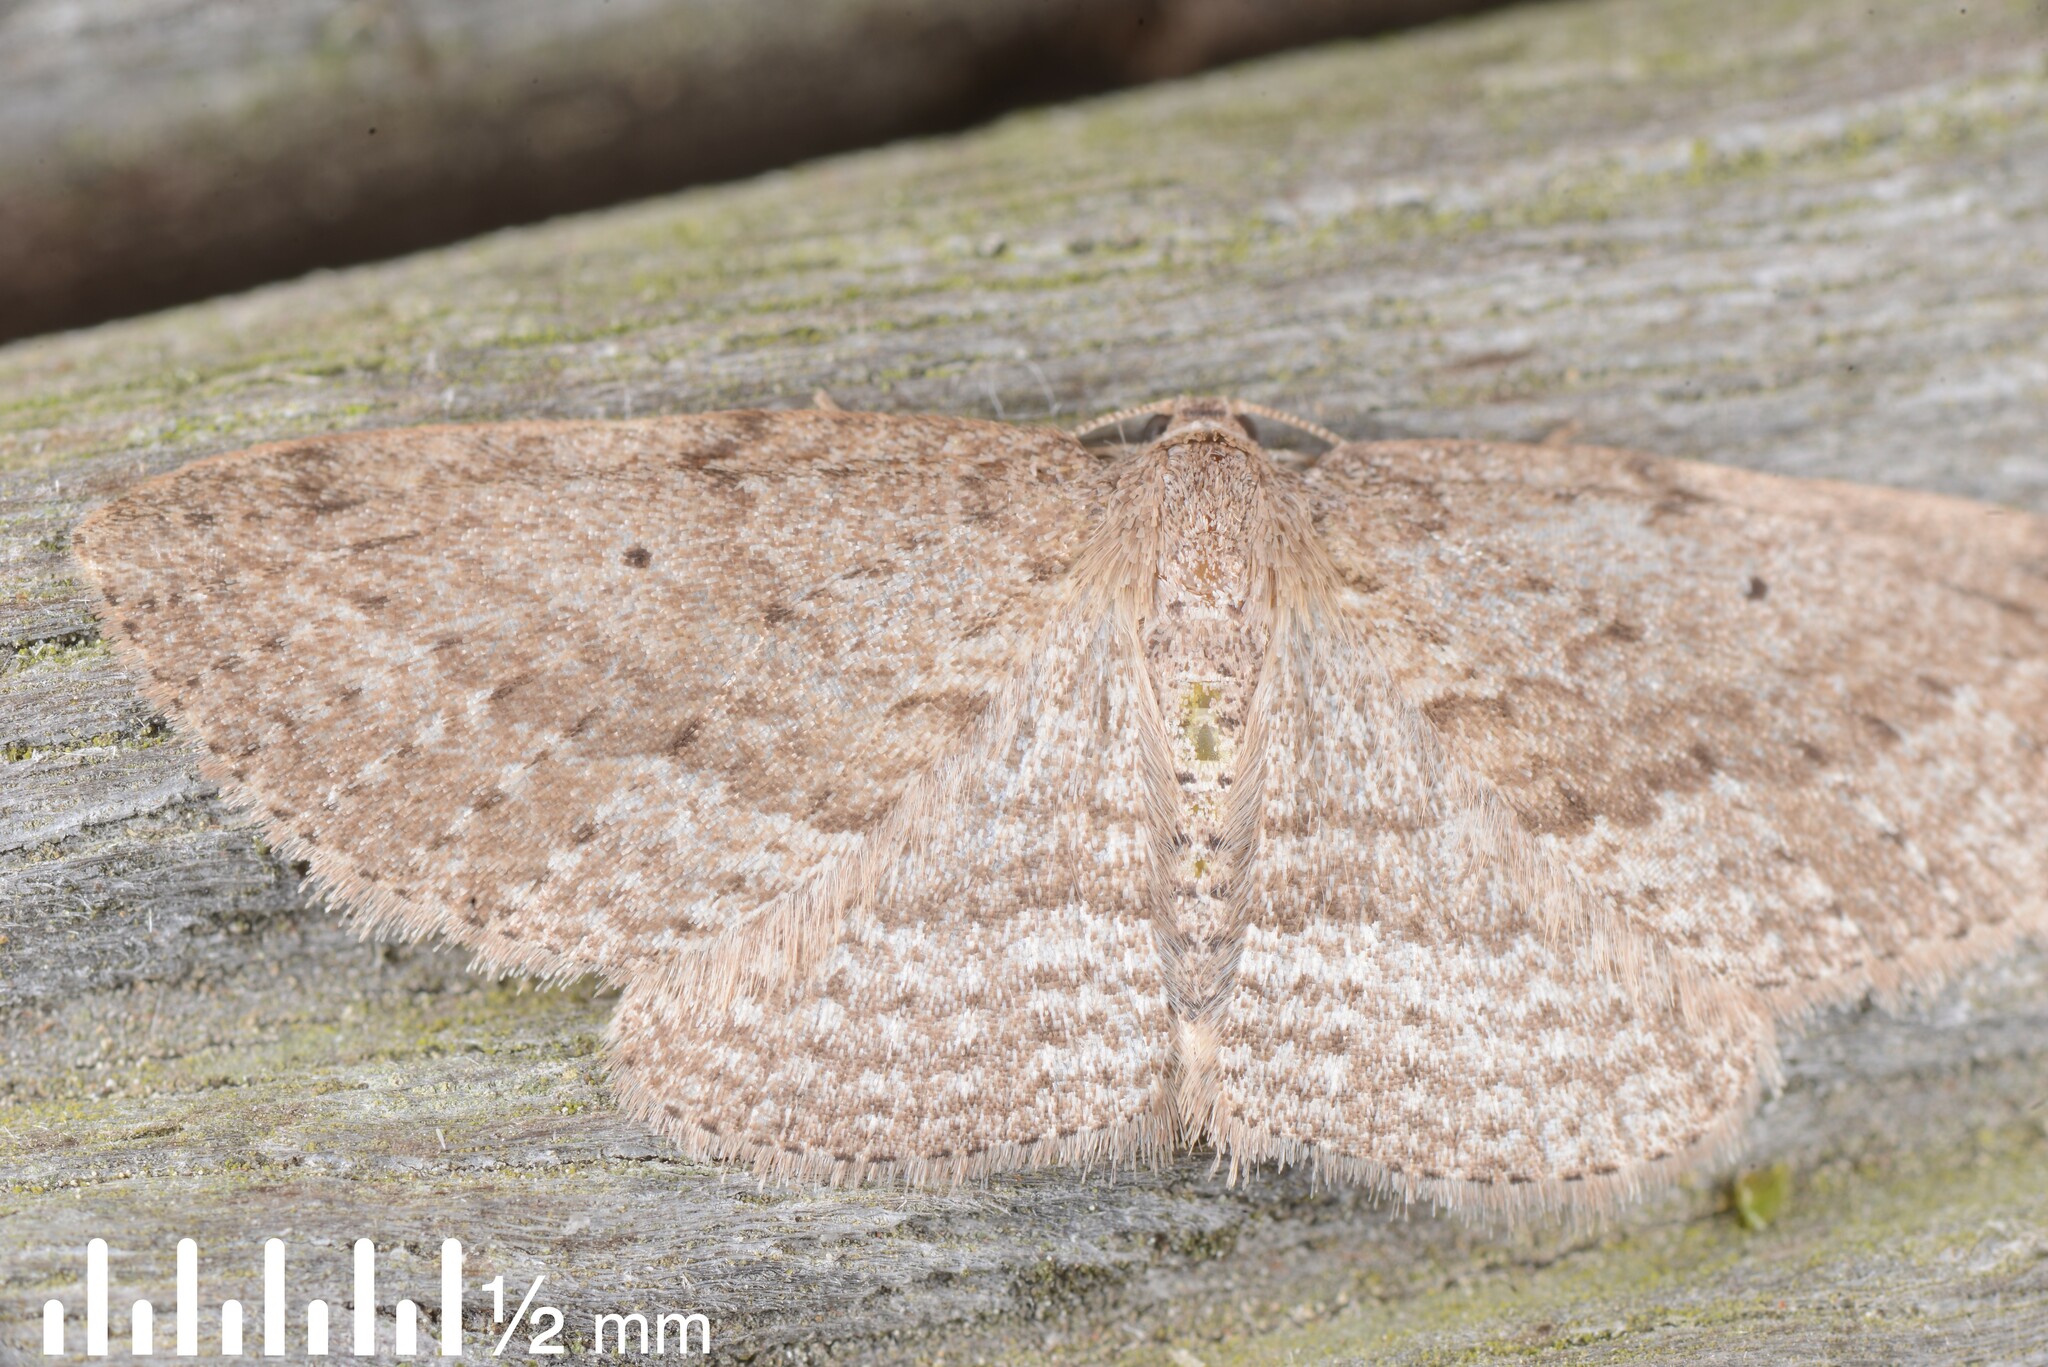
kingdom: Animalia
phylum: Arthropoda
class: Insecta
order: Lepidoptera
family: Geometridae
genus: Poecilasthena
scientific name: Poecilasthena schistaria
